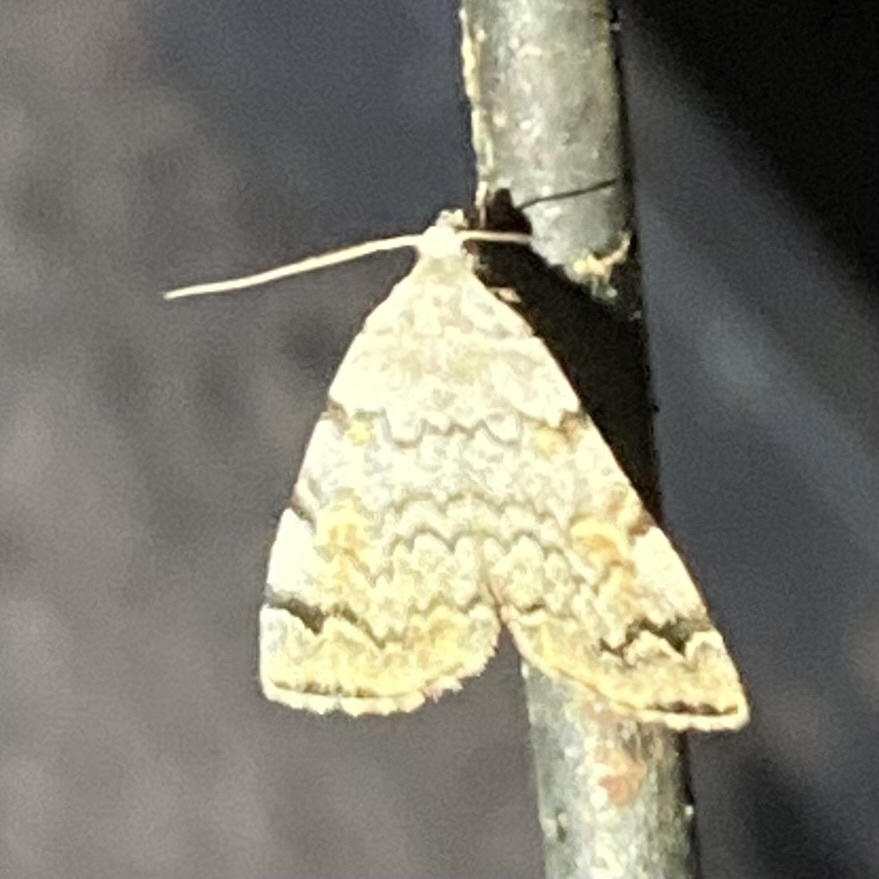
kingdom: Animalia
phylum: Arthropoda
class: Insecta
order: Lepidoptera
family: Erebidae
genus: Idia
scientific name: Idia americalis
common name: American idia moth
